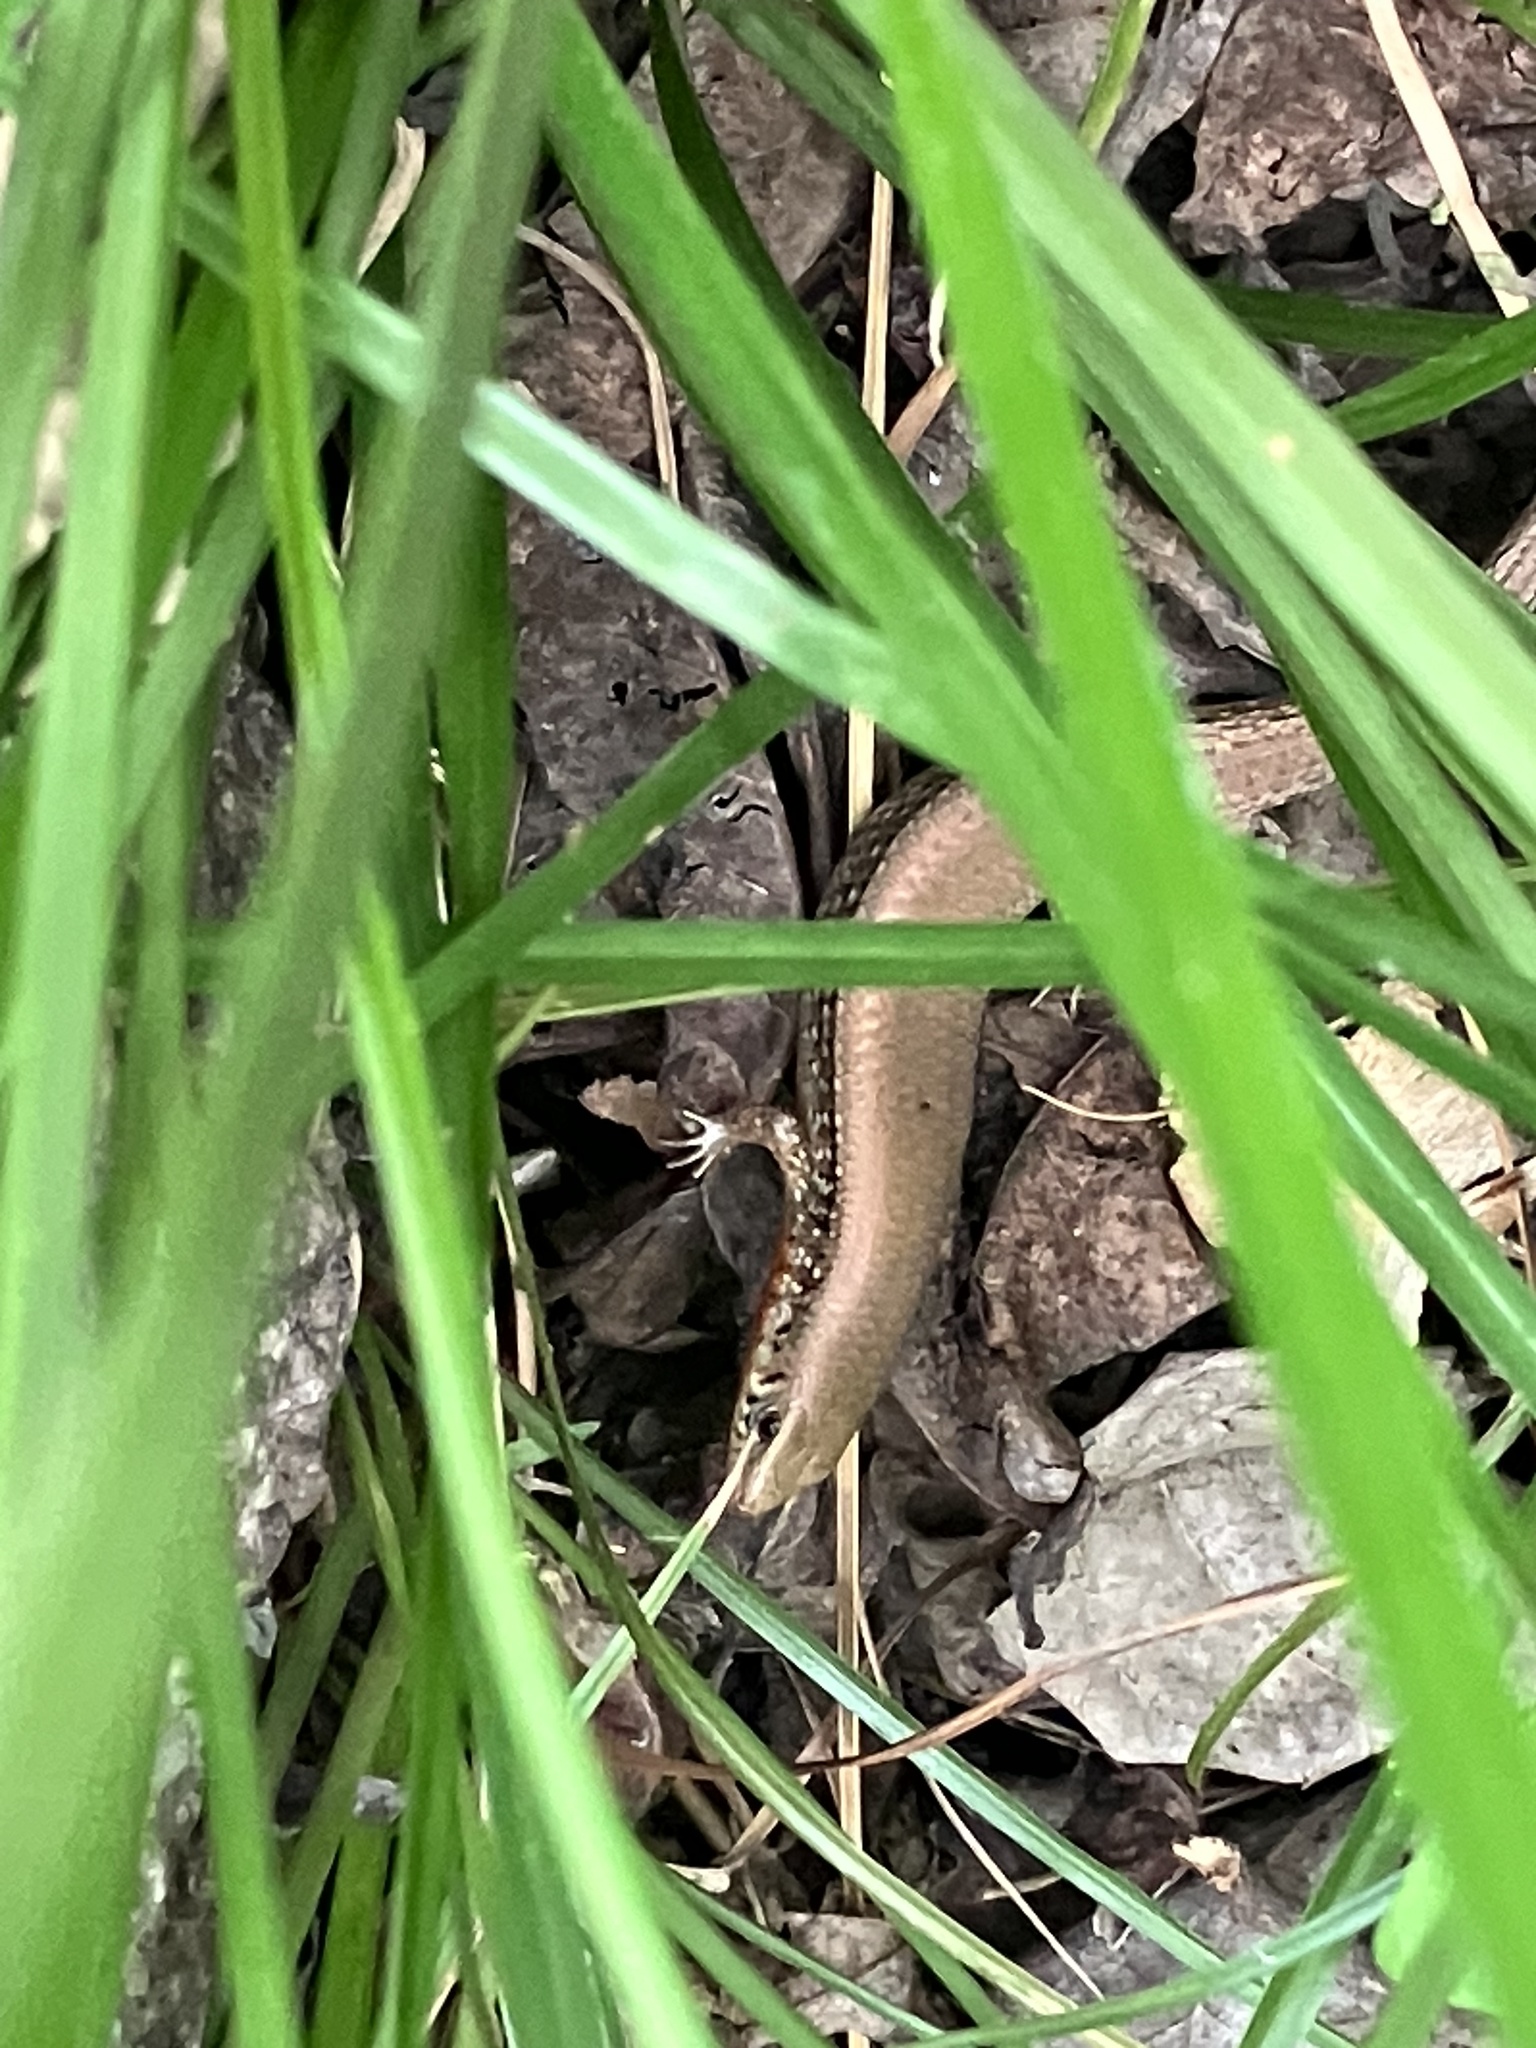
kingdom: Animalia
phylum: Chordata
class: Squamata
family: Scincidae
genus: Eutropis
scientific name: Eutropis macularia
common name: Bronze mabuya
